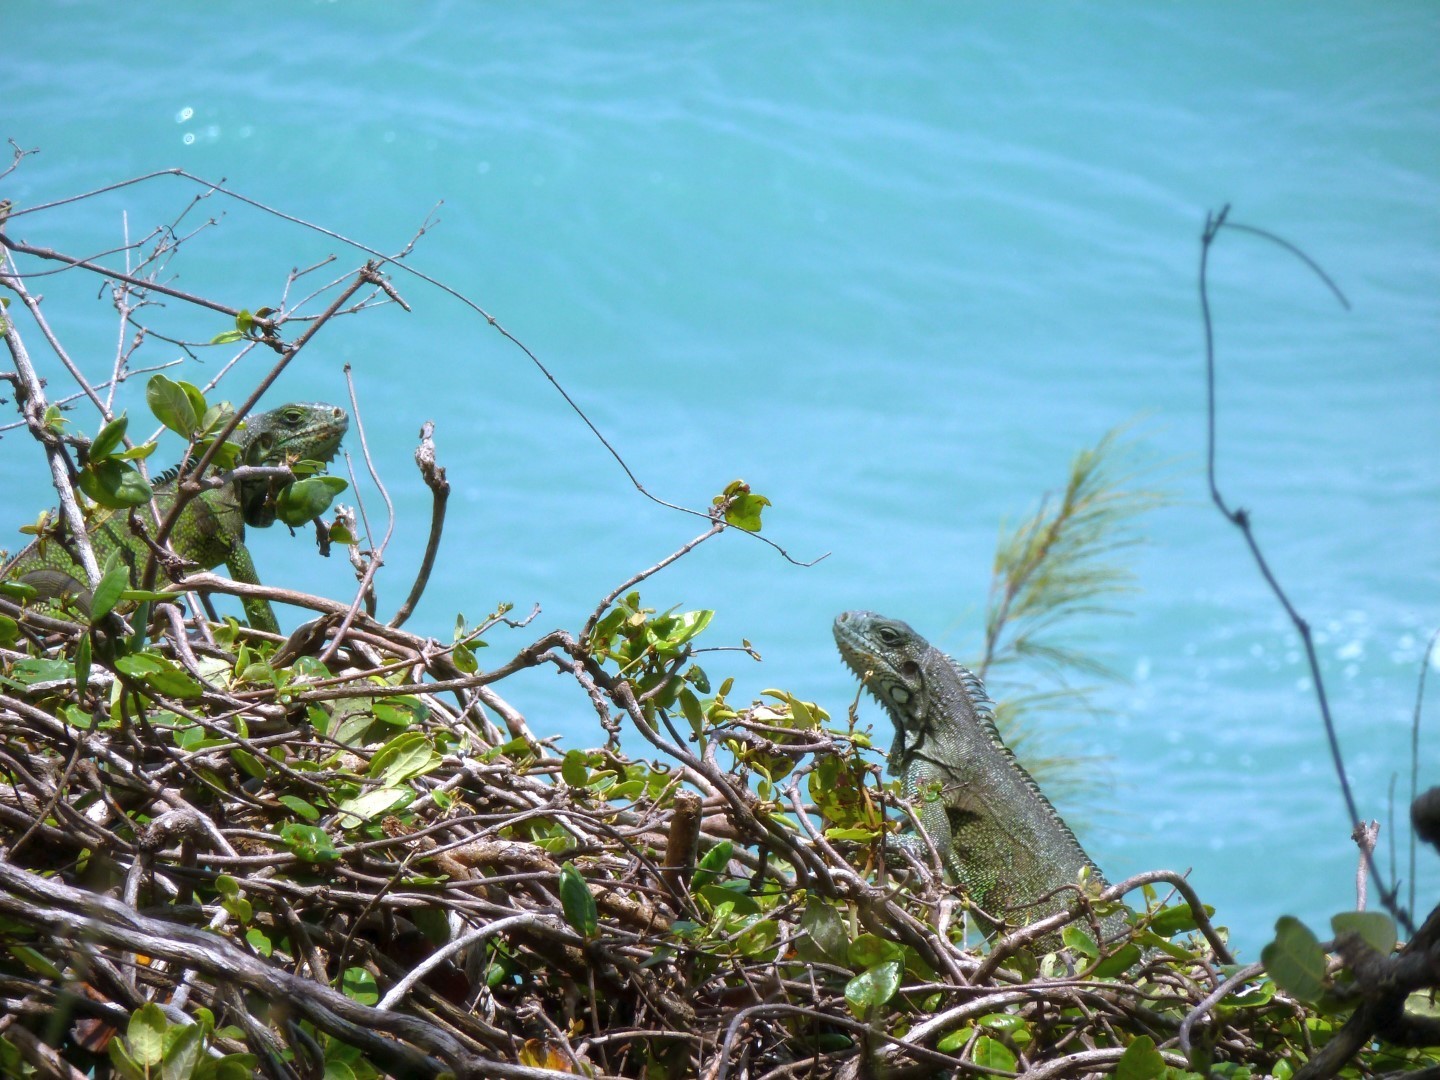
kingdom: Animalia
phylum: Chordata
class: Squamata
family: Iguanidae
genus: Iguana
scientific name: Iguana iguana
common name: Green iguana
